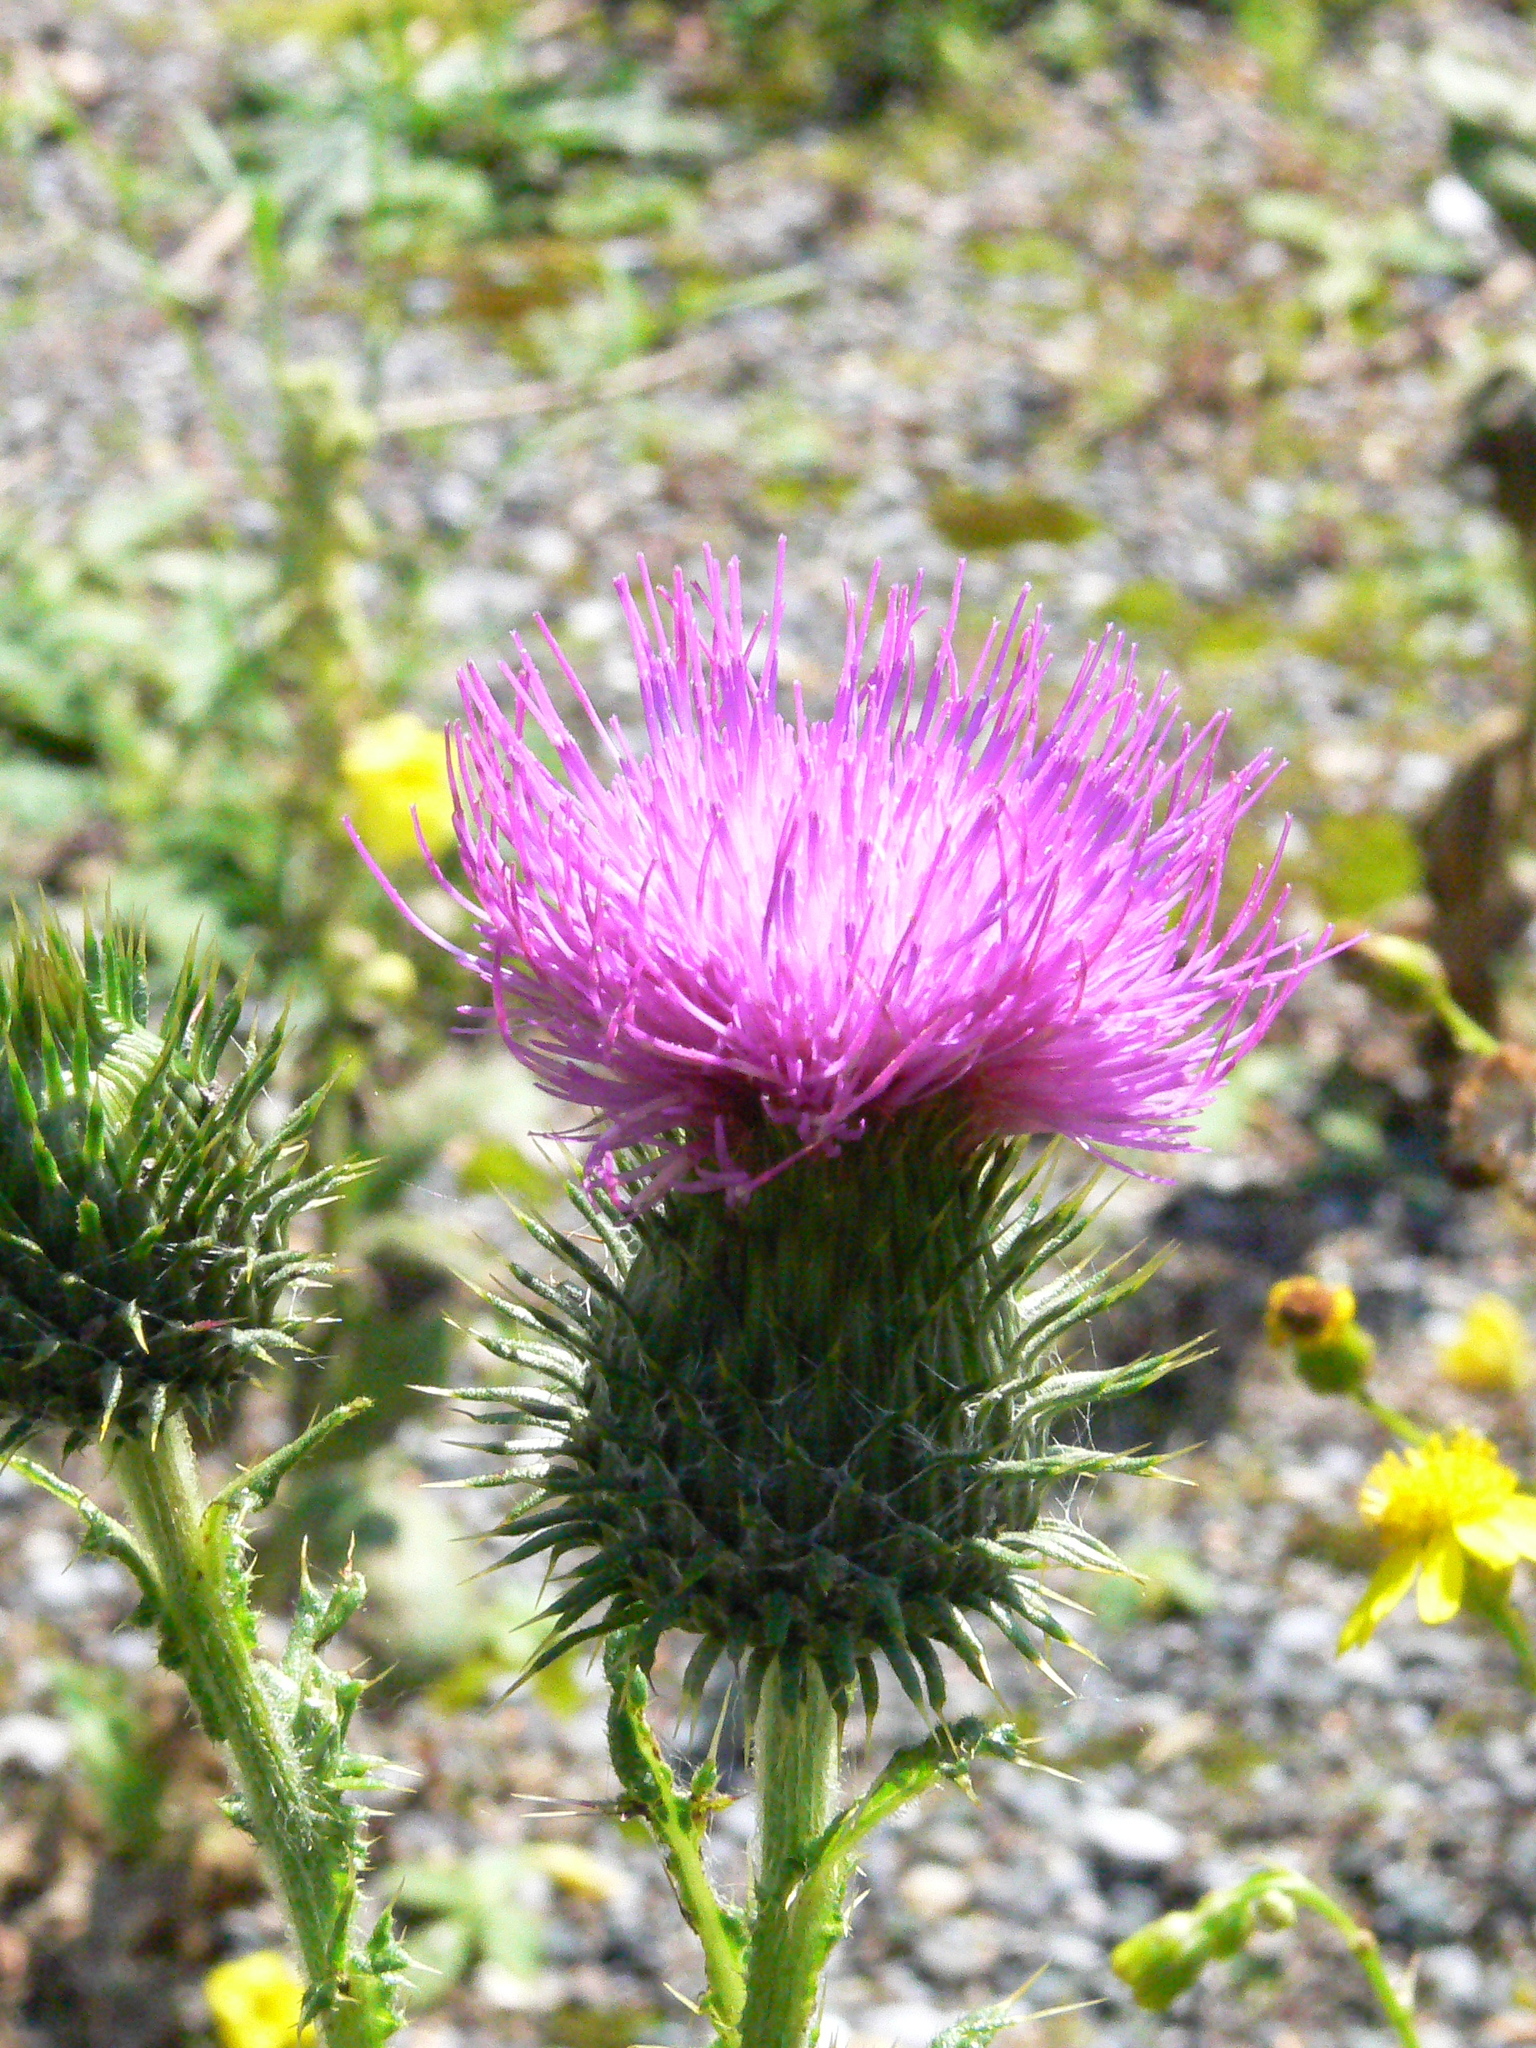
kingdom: Plantae
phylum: Tracheophyta
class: Magnoliopsida
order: Asterales
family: Asteraceae
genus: Cirsium
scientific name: Cirsium vulgare
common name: Bull thistle
